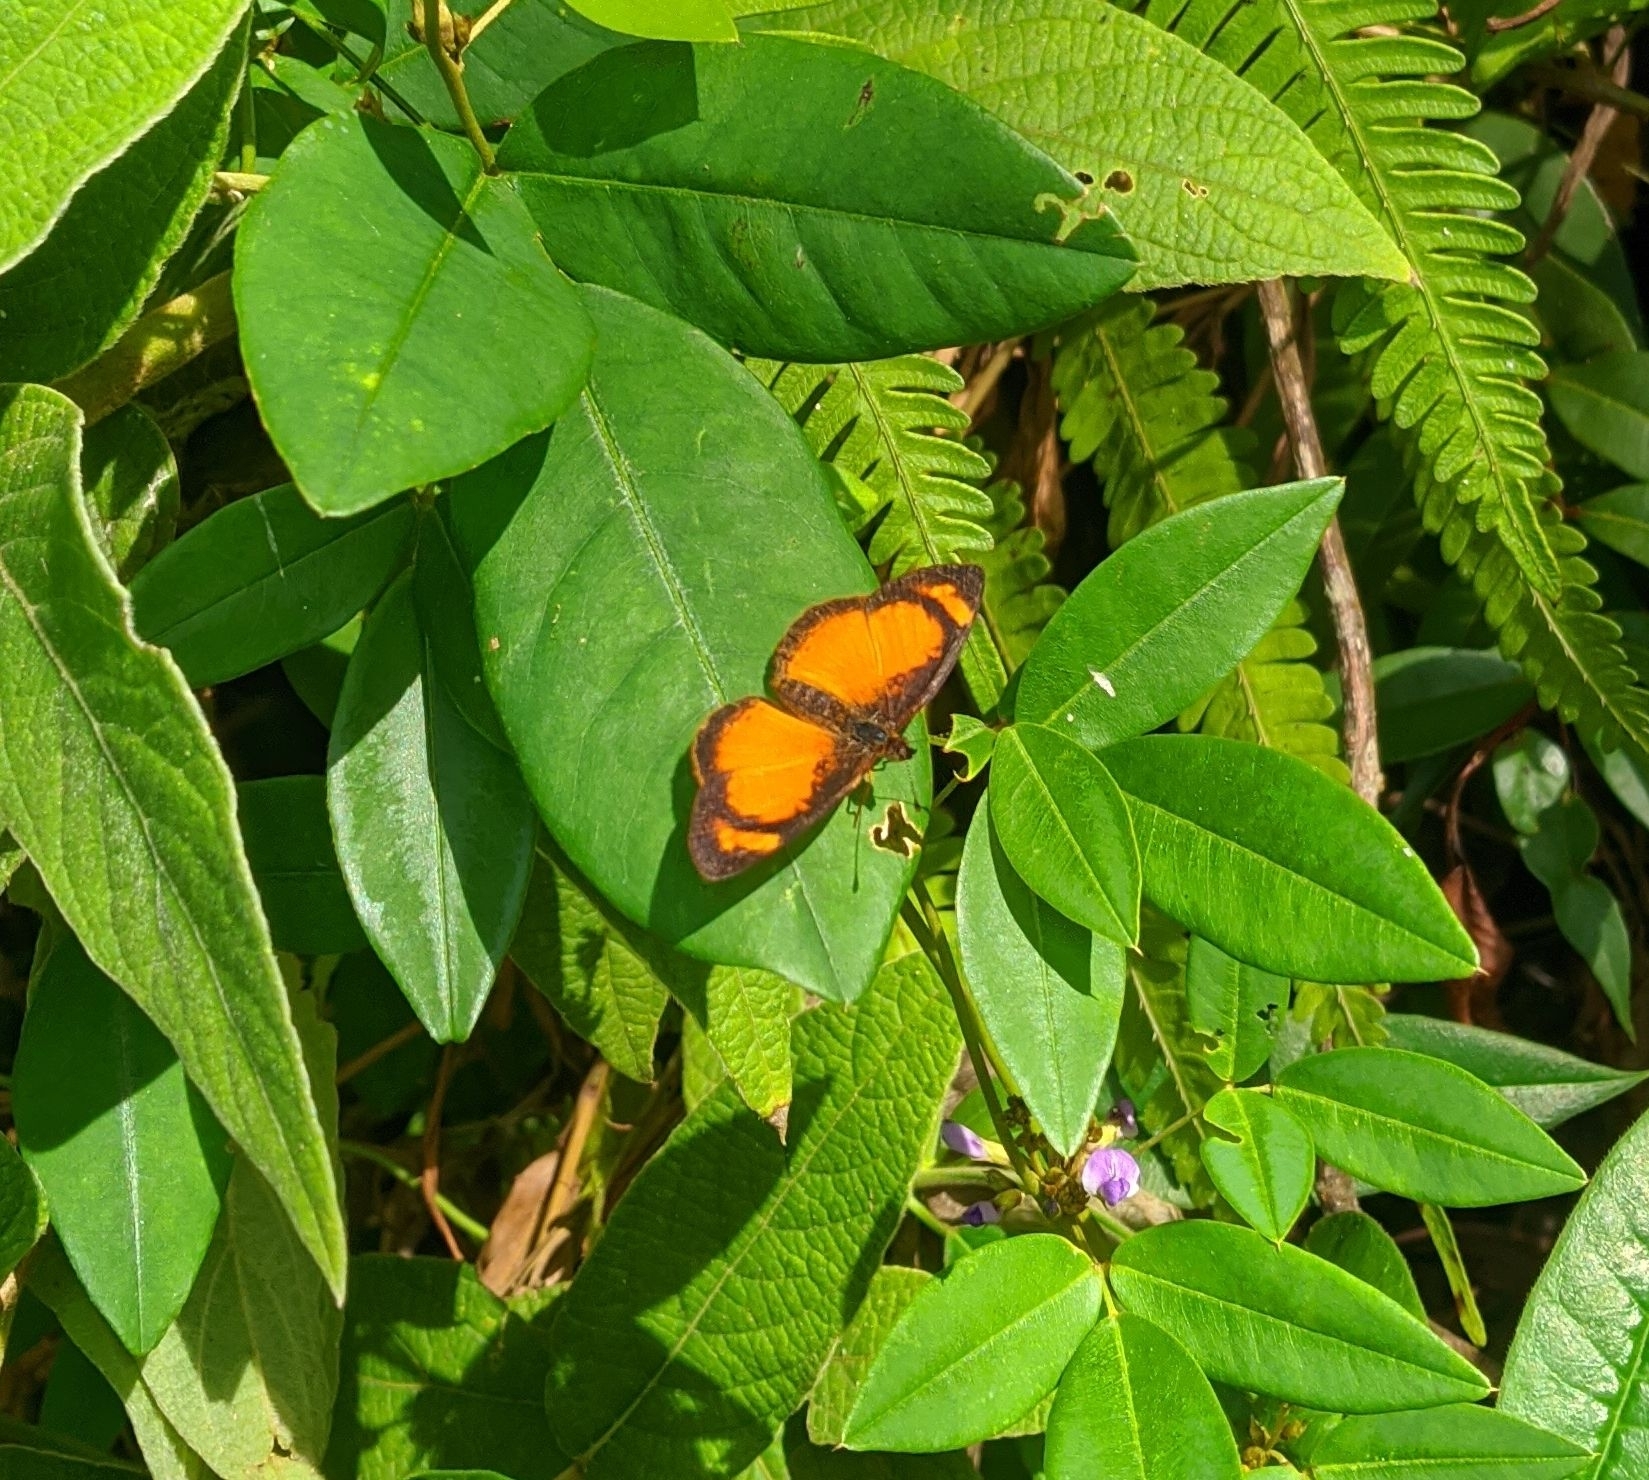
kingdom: Animalia
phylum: Arthropoda
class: Insecta
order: Lepidoptera
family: Nymphalidae
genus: Tegosa
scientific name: Tegosa anieta
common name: Black-bordered crescent
